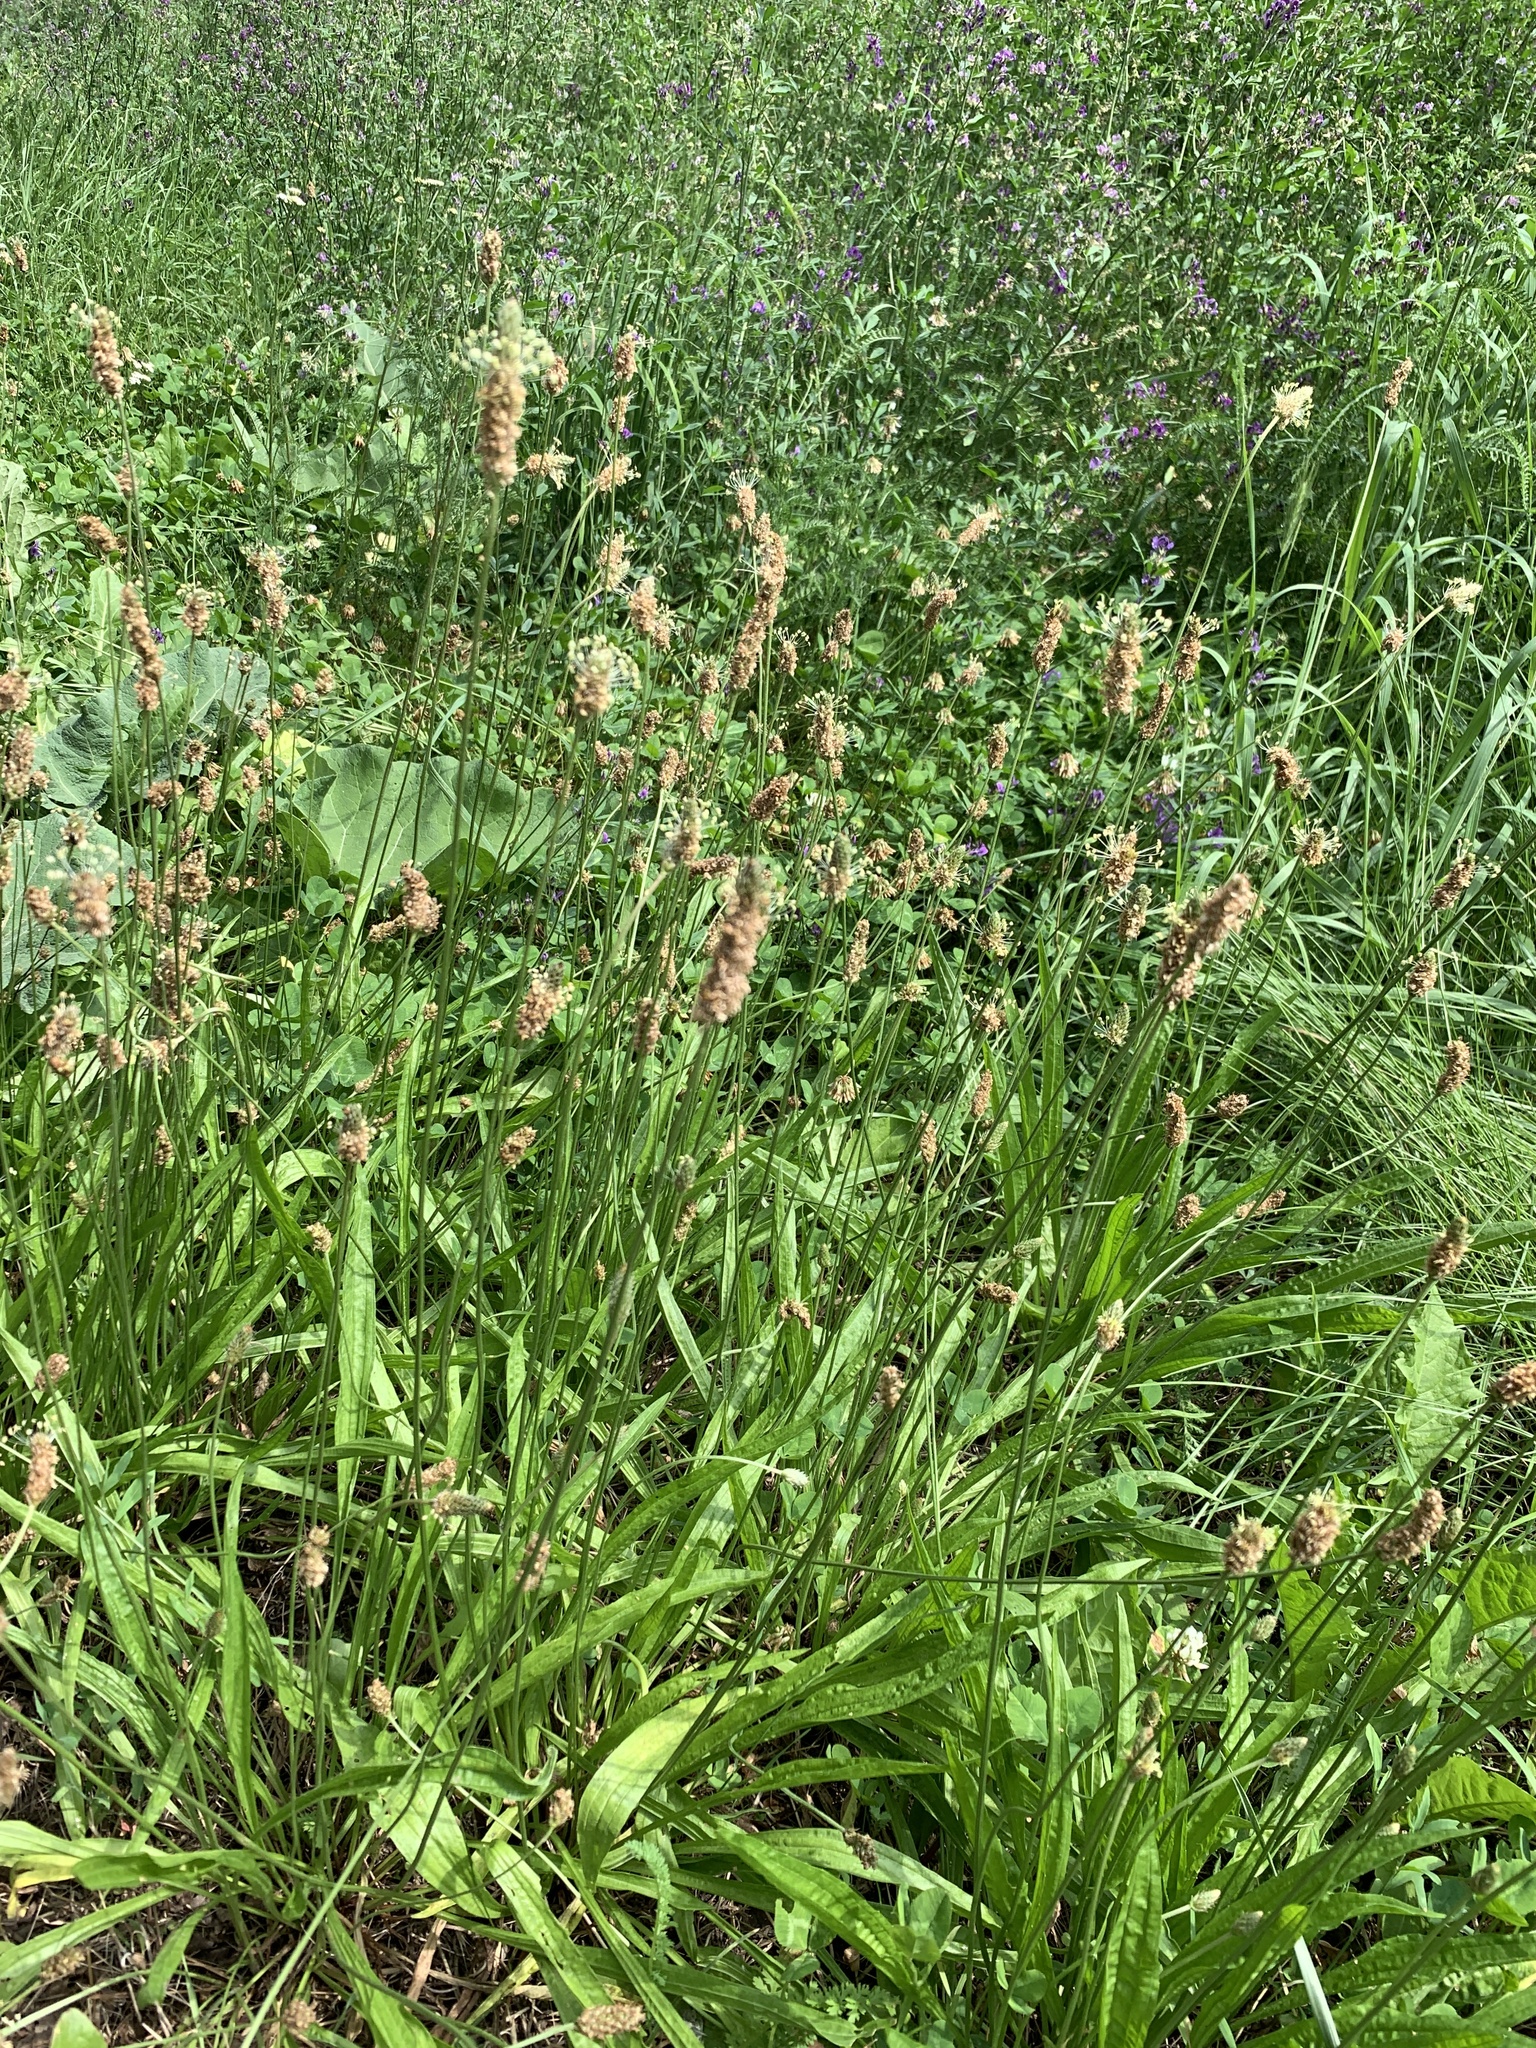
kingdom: Plantae
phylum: Tracheophyta
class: Magnoliopsida
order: Lamiales
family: Plantaginaceae
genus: Plantago
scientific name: Plantago lanceolata
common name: Ribwort plantain
